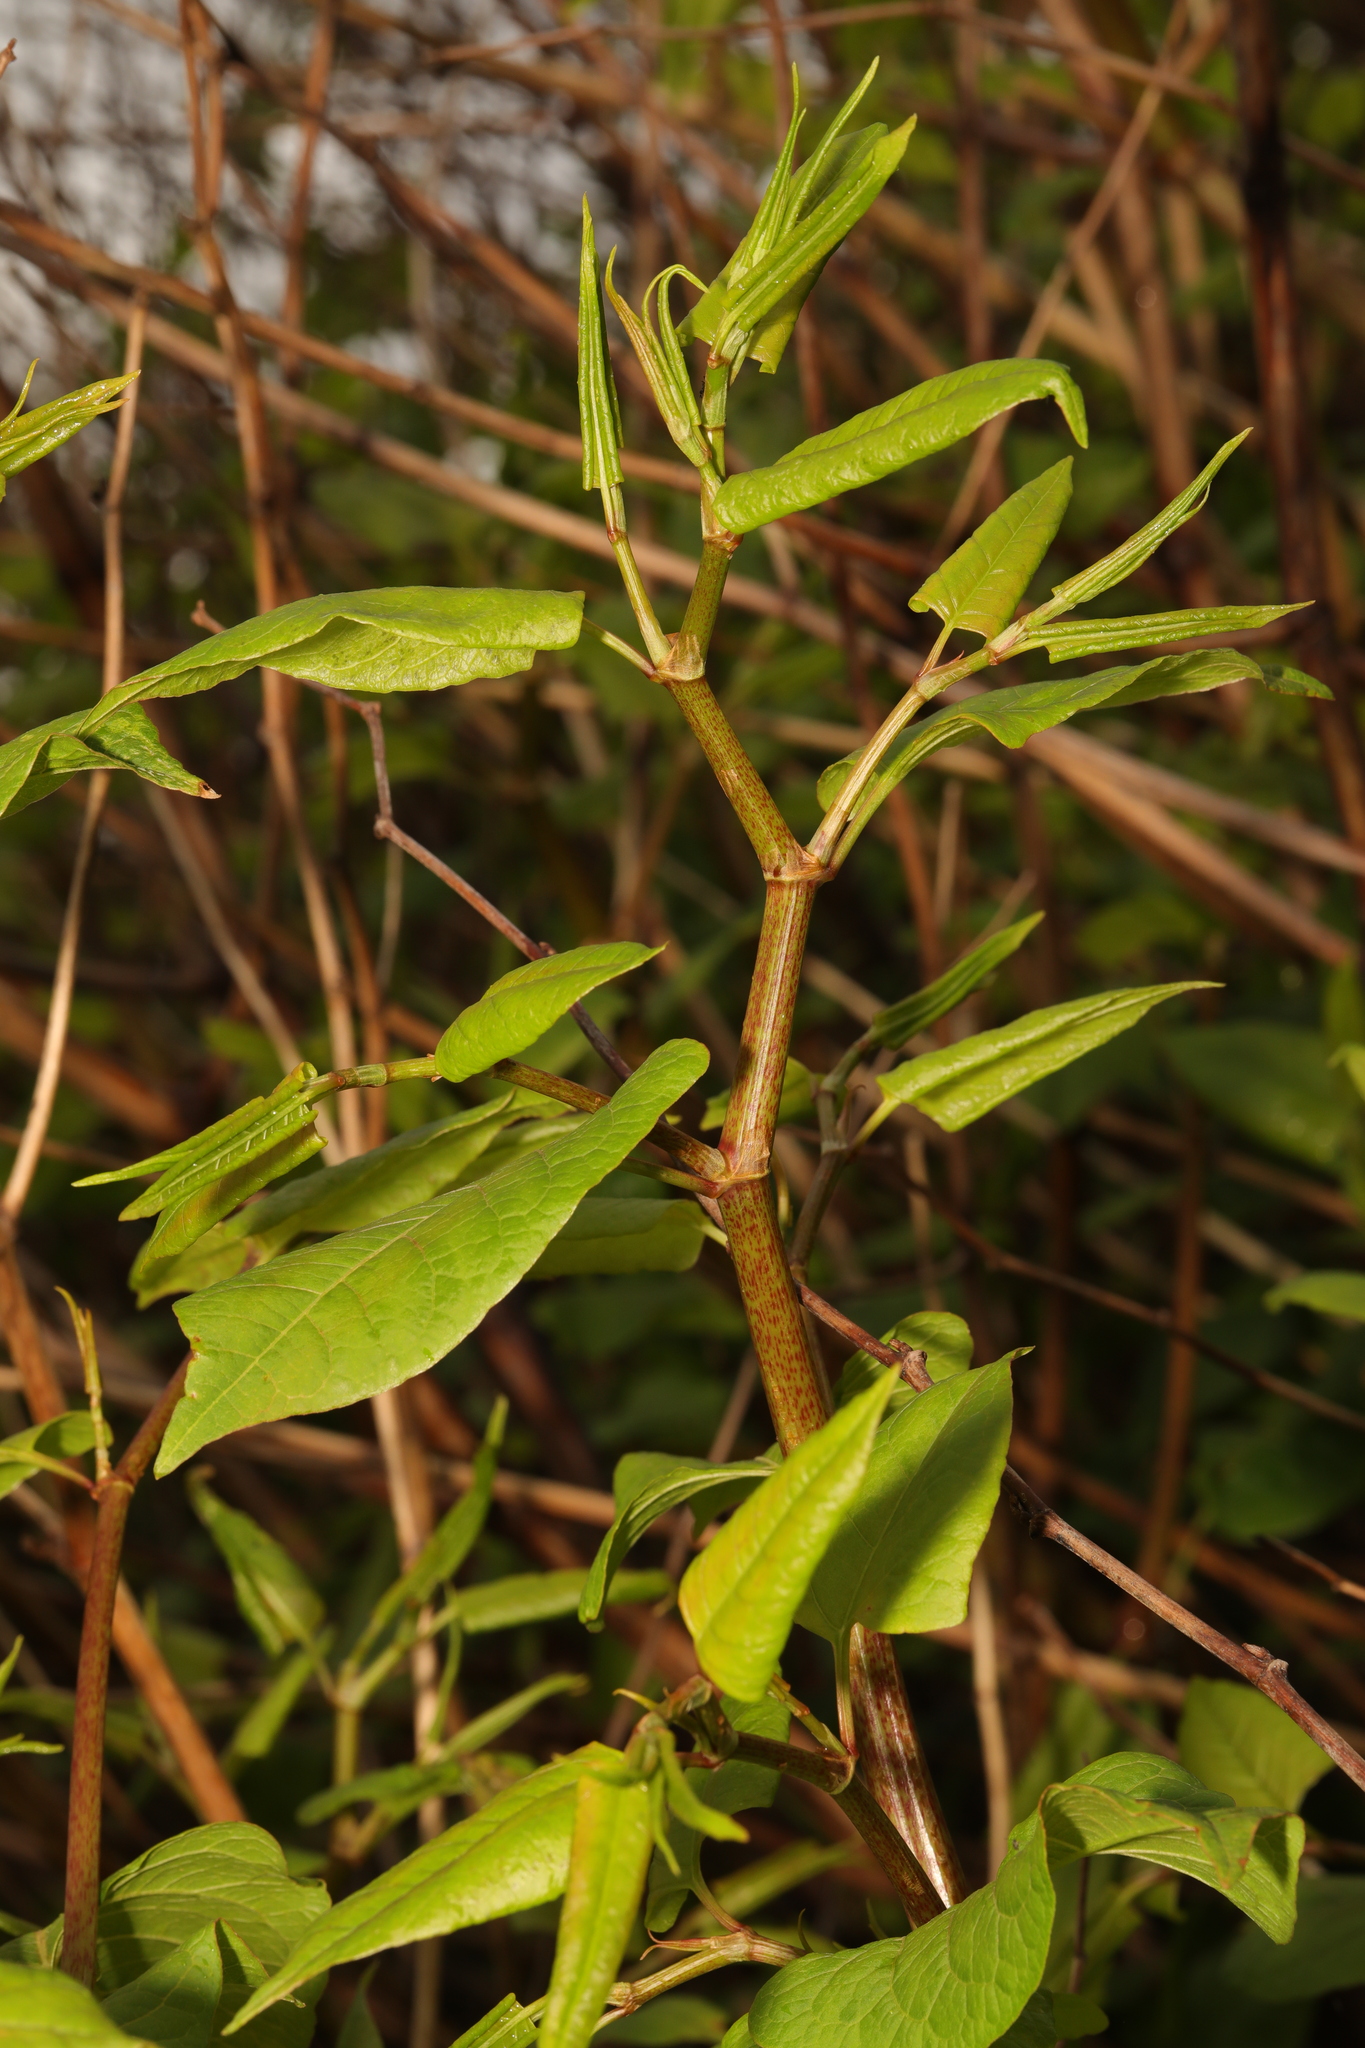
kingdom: Plantae
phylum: Tracheophyta
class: Magnoliopsida
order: Caryophyllales
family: Polygonaceae
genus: Reynoutria
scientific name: Reynoutria japonica
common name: Japanese knotweed
